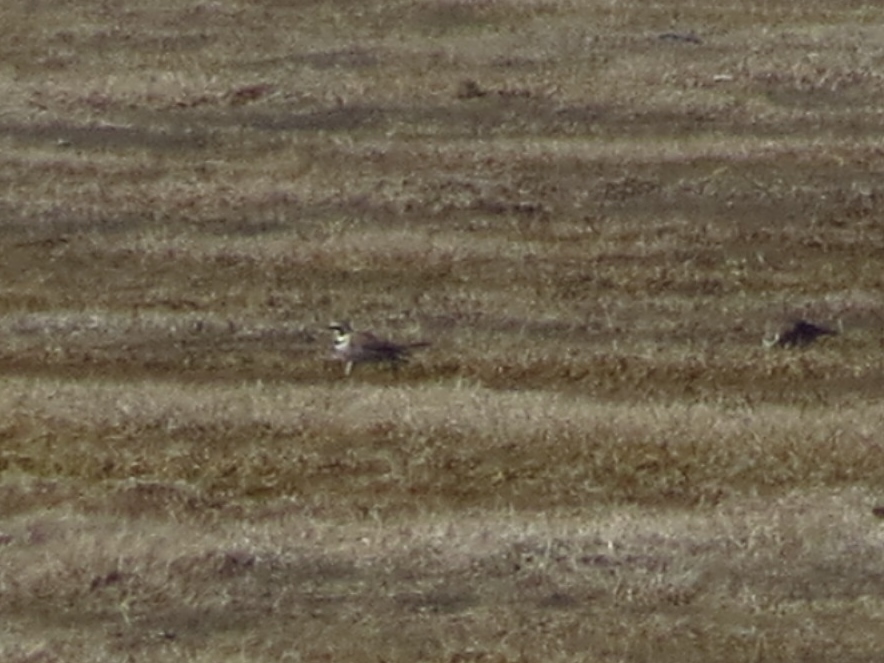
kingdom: Animalia
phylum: Chordata
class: Aves
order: Passeriformes
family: Alaudidae
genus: Eremophila
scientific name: Eremophila alpestris
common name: Horned lark
